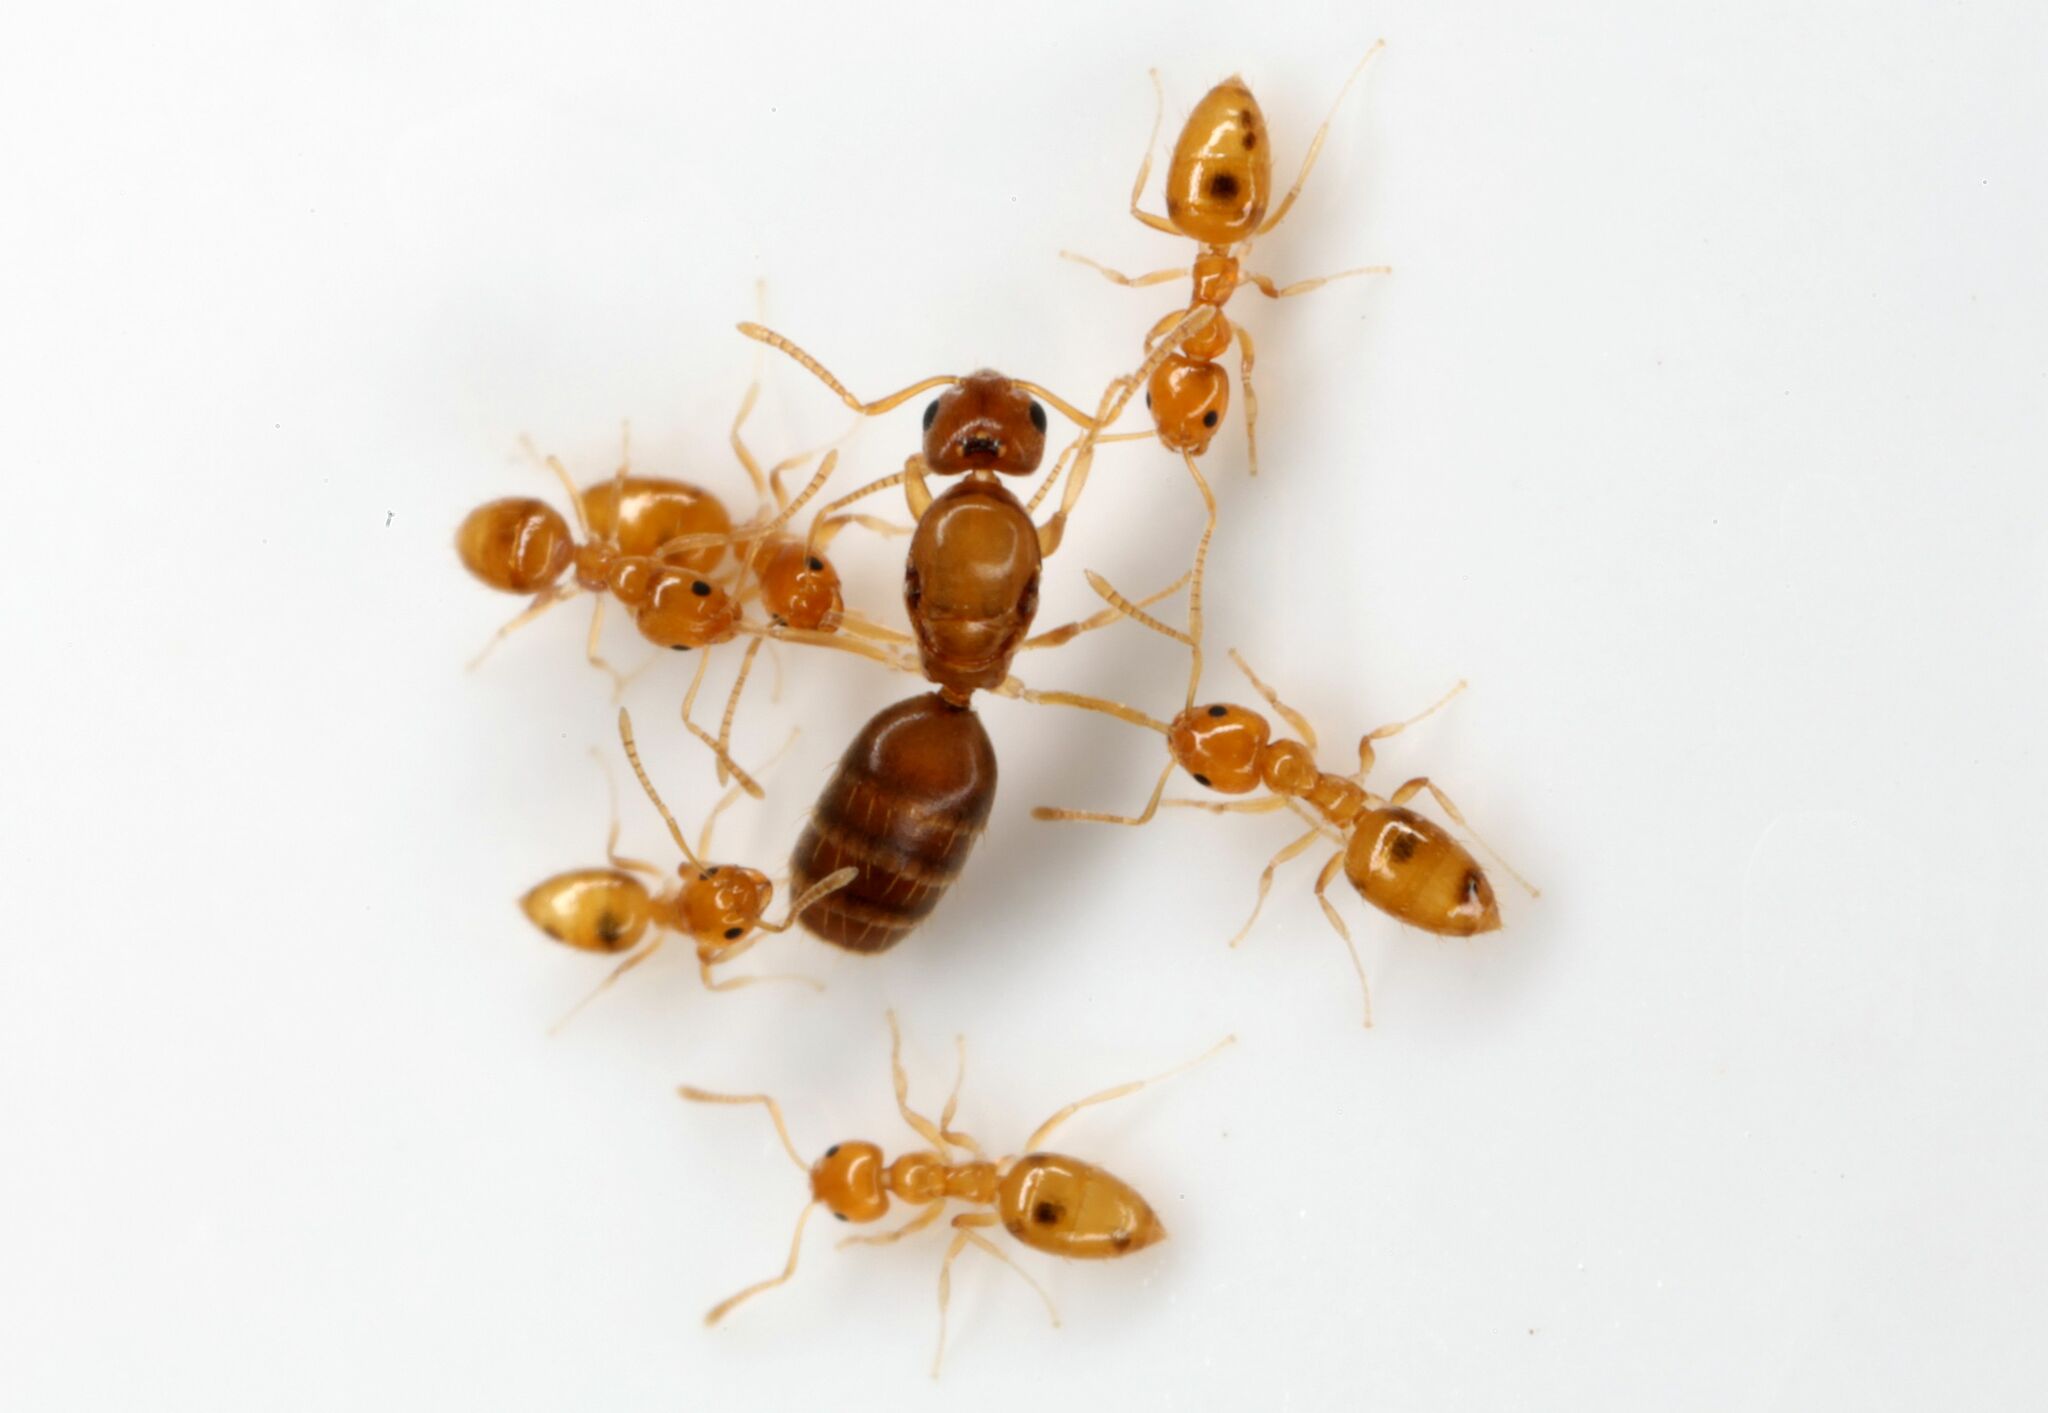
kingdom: Animalia
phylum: Arthropoda
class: Insecta
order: Hymenoptera
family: Formicidae
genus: Plagiolepis
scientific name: Plagiolepis alluaudi
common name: Little yellow ant
